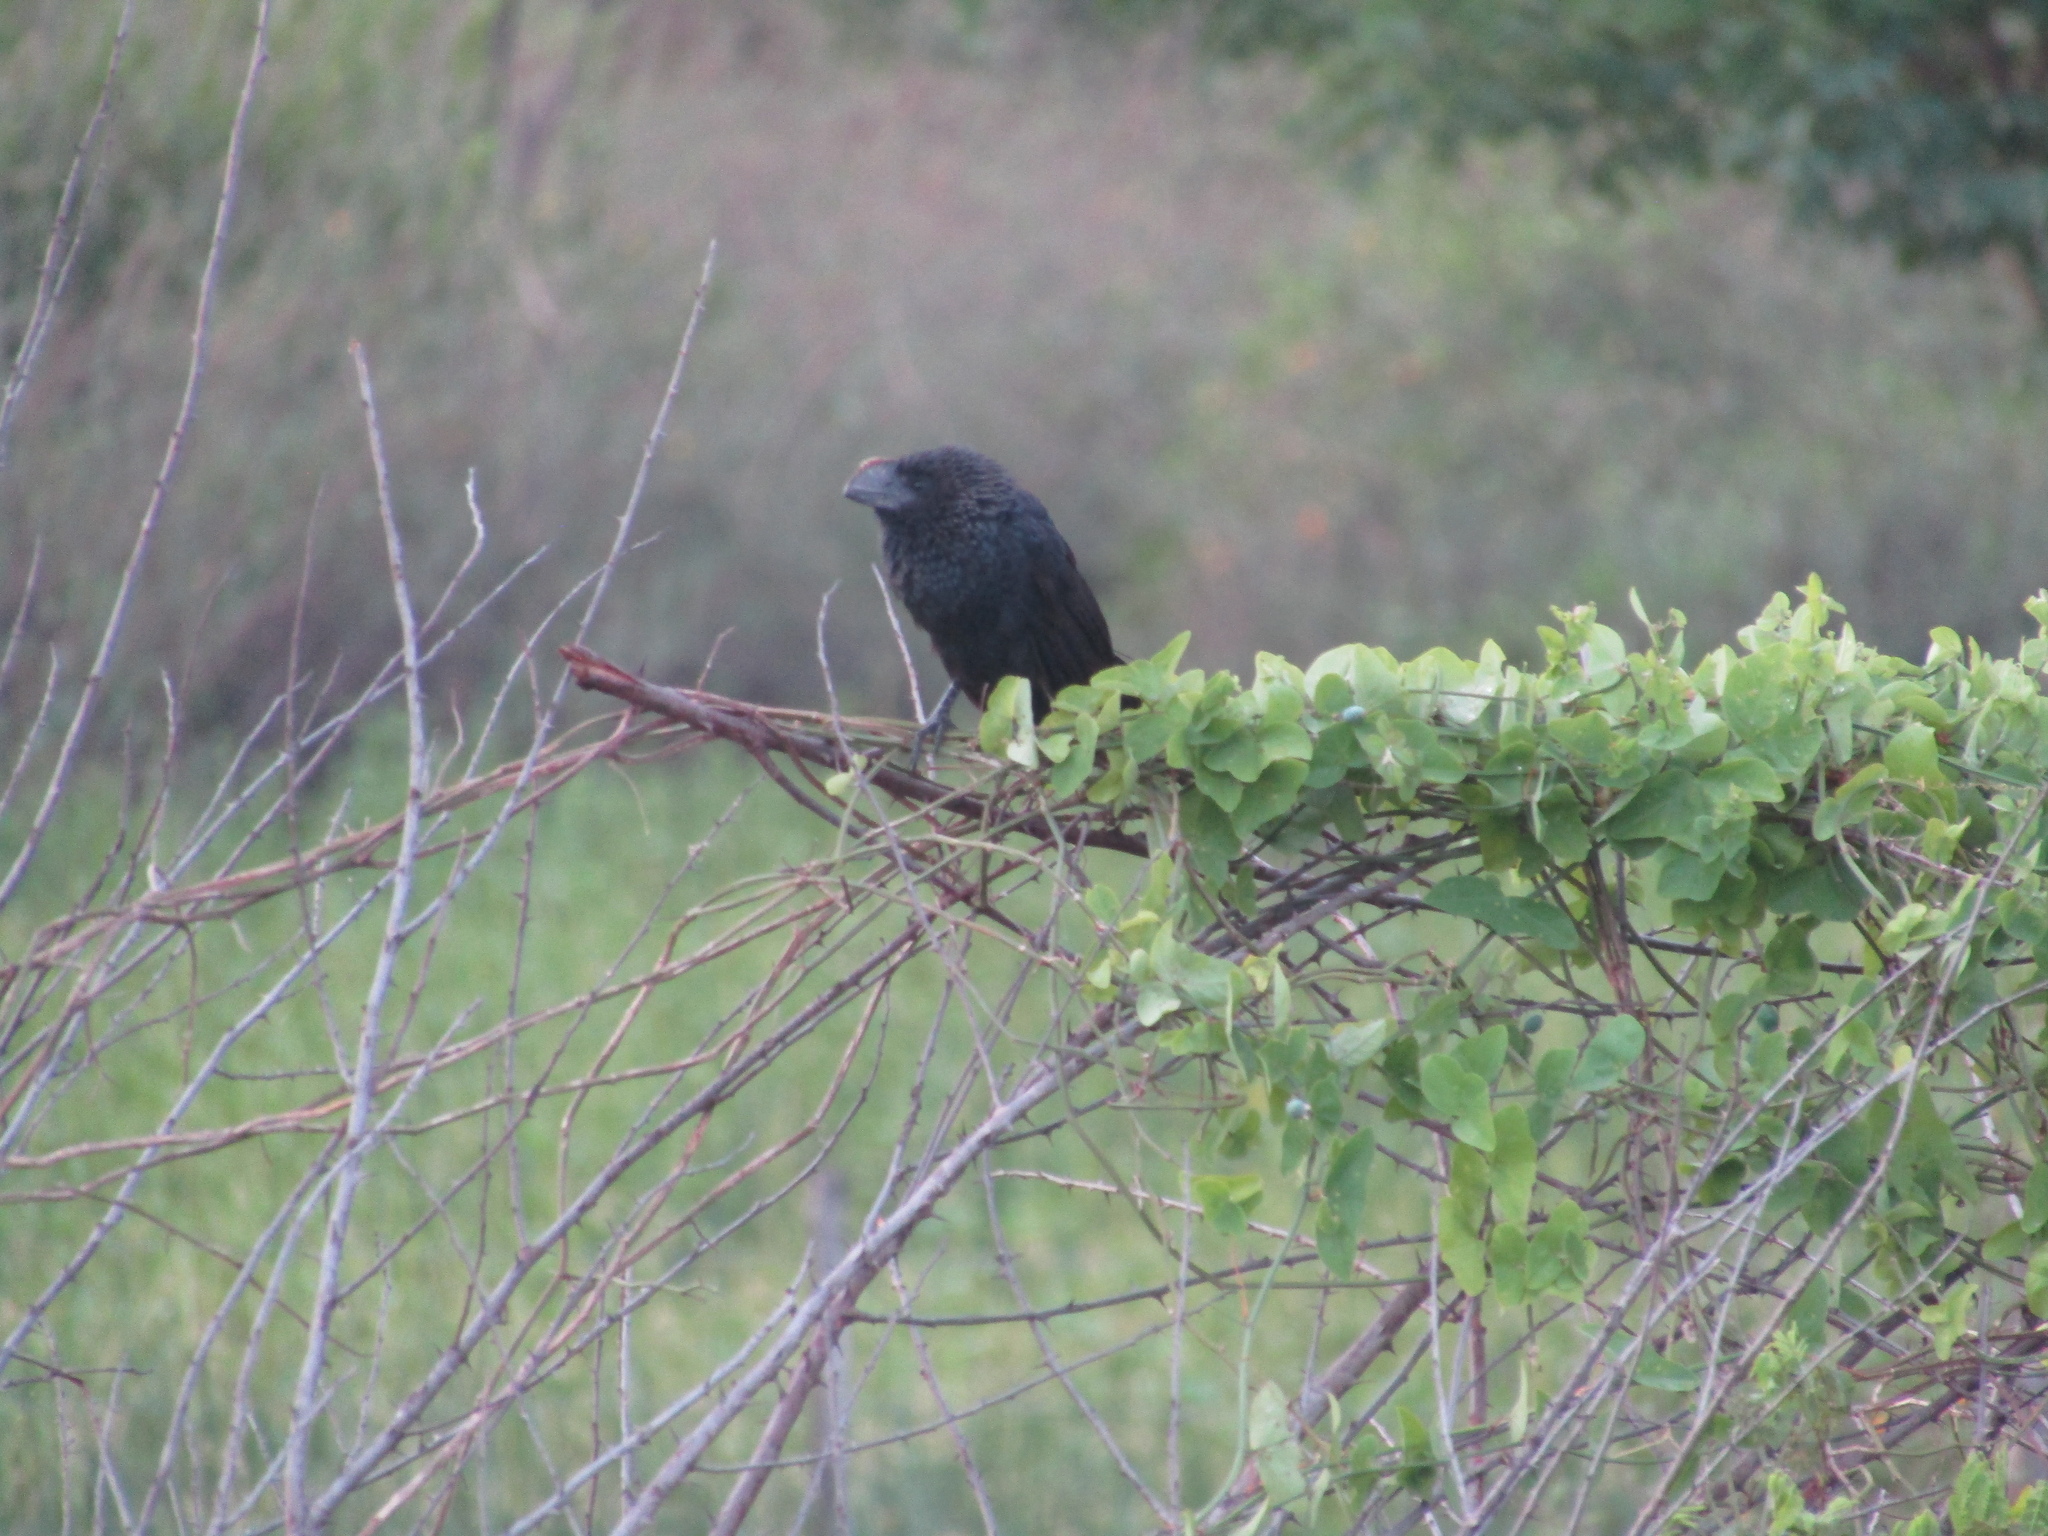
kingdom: Animalia
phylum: Chordata
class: Aves
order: Cuculiformes
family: Cuculidae
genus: Crotophaga
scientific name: Crotophaga ani
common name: Smooth-billed ani
